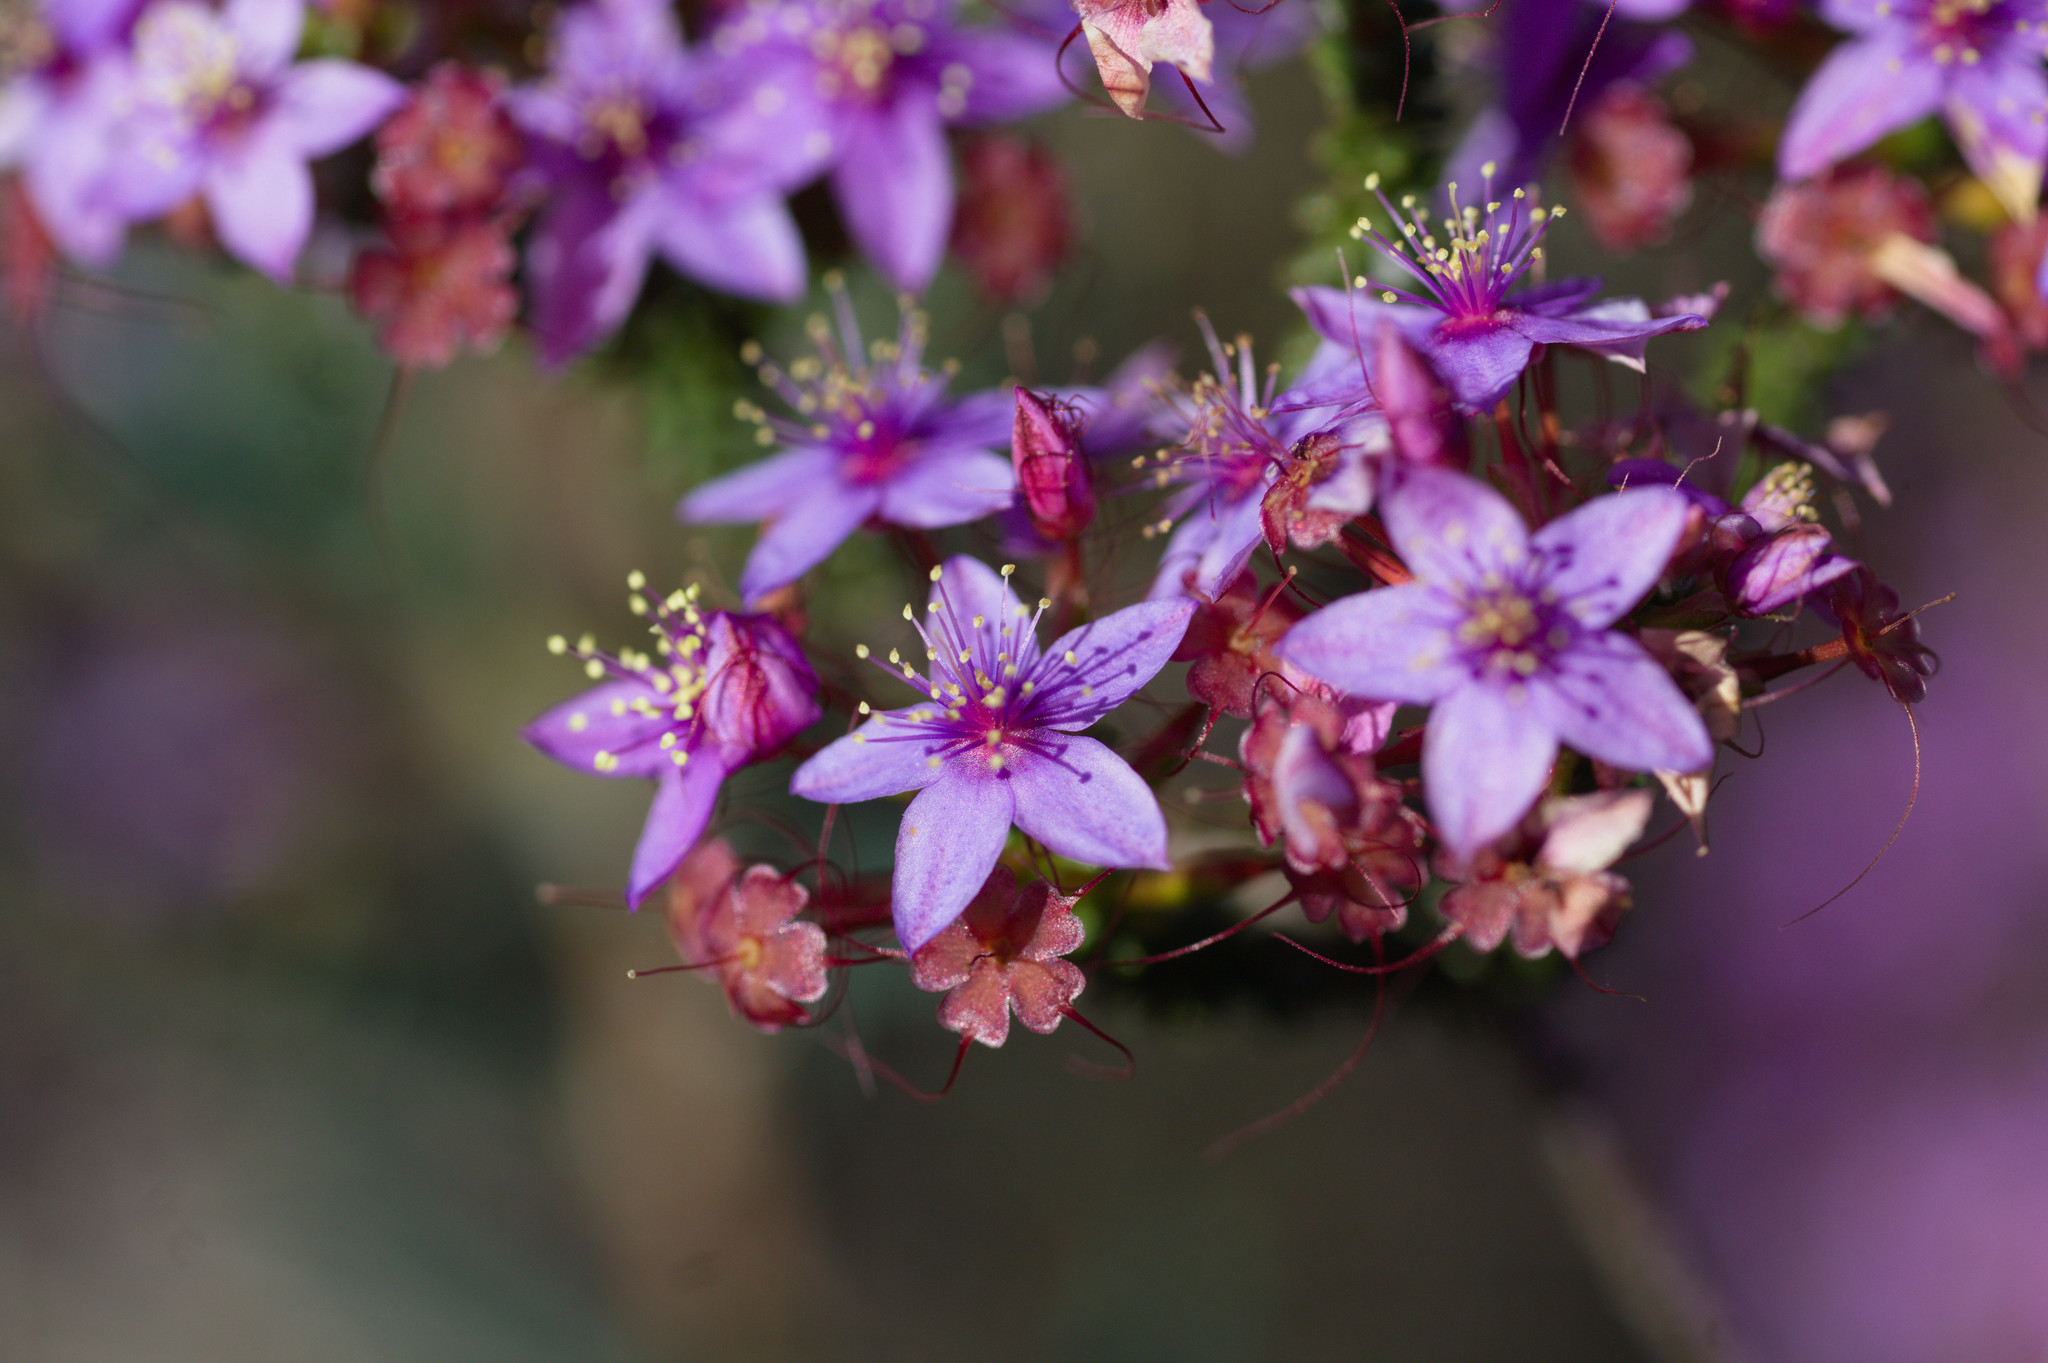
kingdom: Plantae
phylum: Tracheophyta
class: Magnoliopsida
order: Myrtales
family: Myrtaceae
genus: Calytrix
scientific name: Calytrix leschenaultii
